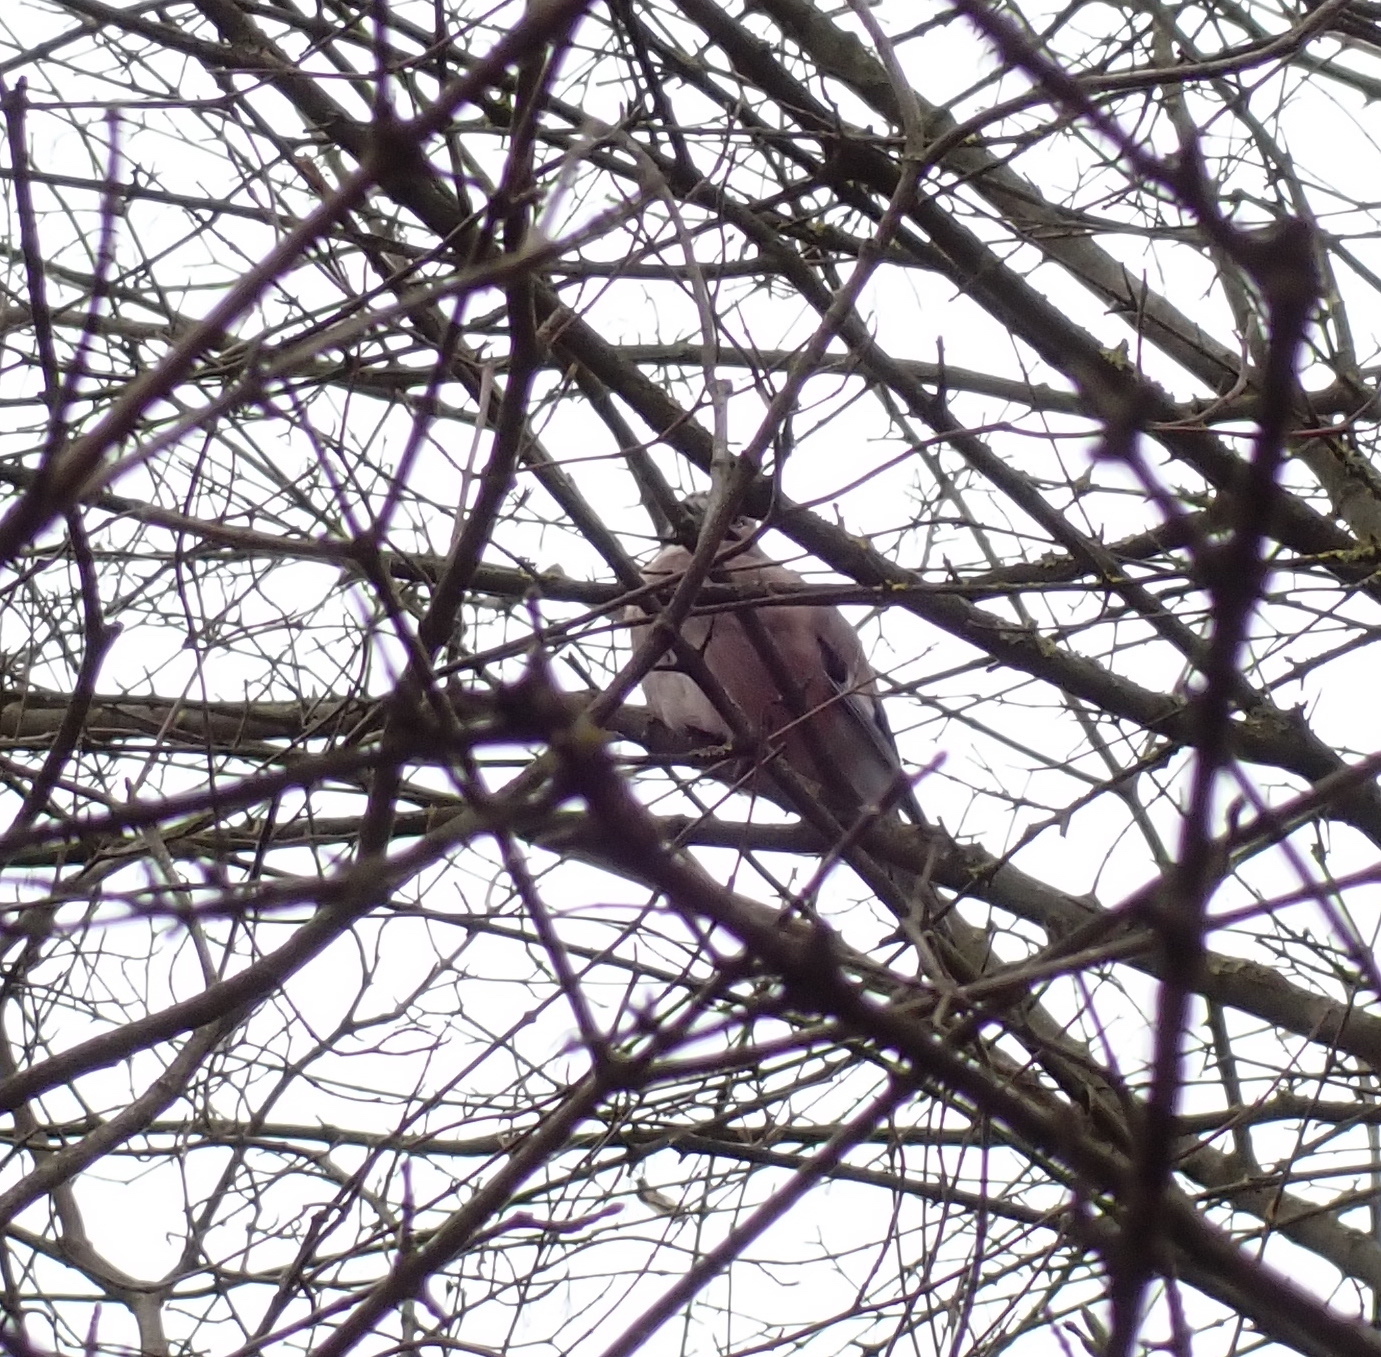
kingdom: Animalia
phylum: Chordata
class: Aves
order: Passeriformes
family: Corvidae
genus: Garrulus
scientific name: Garrulus glandarius
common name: Eurasian jay
